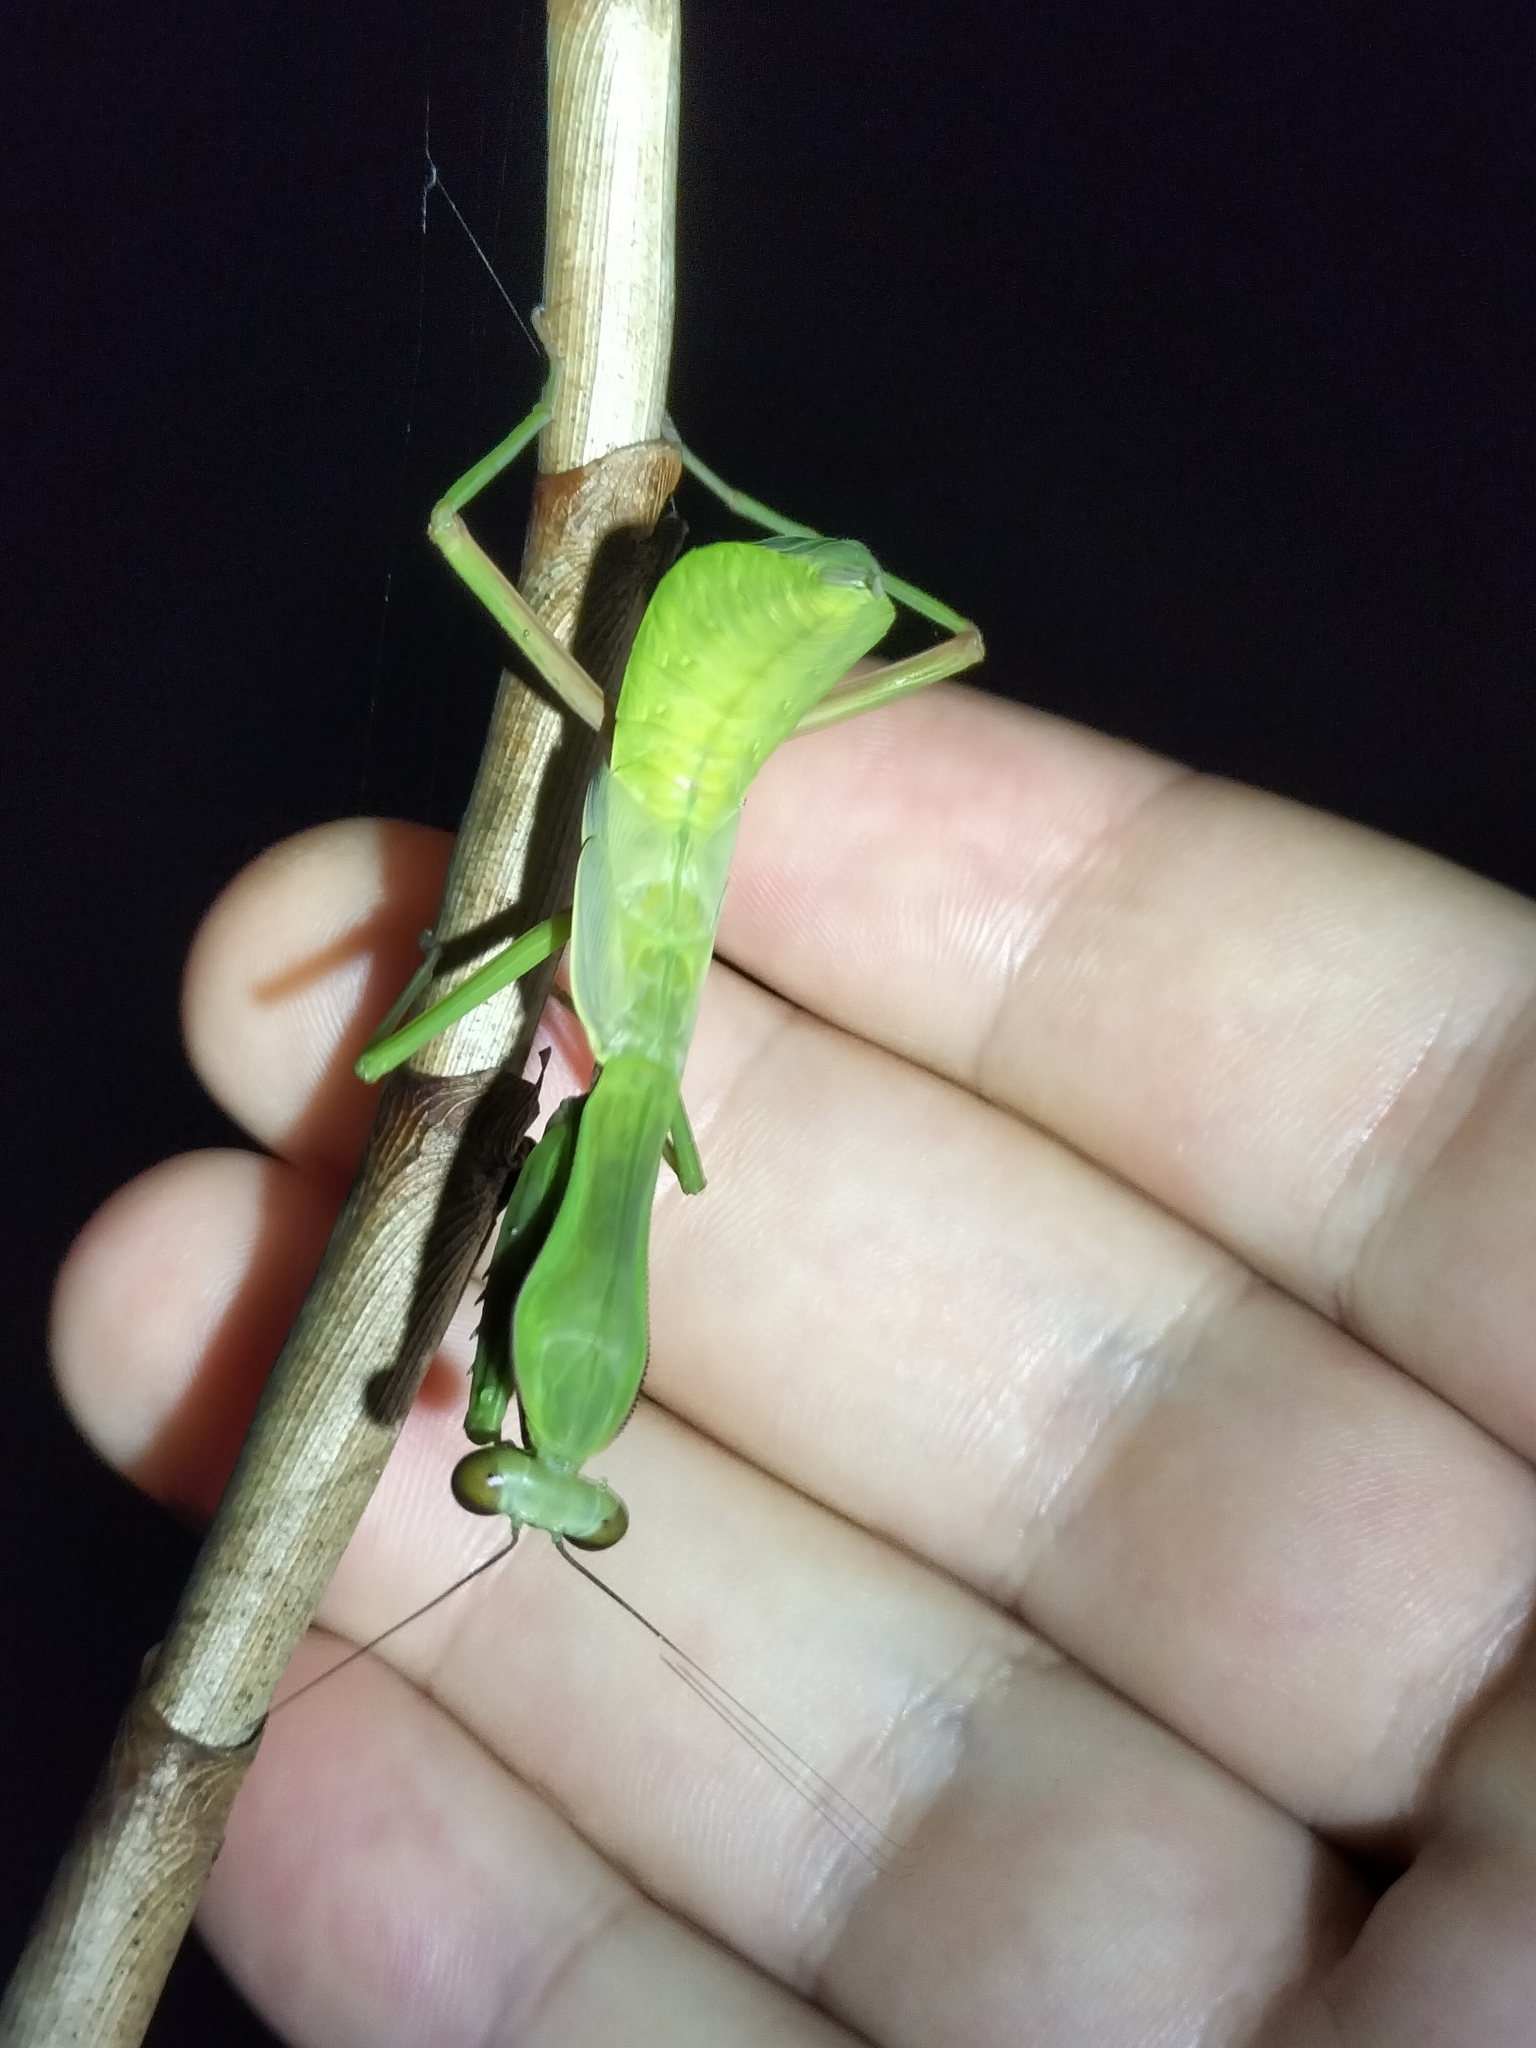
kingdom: Animalia
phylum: Arthropoda
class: Insecta
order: Mantodea
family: Mantidae
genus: Hierodula
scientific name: Hierodula majuscula
